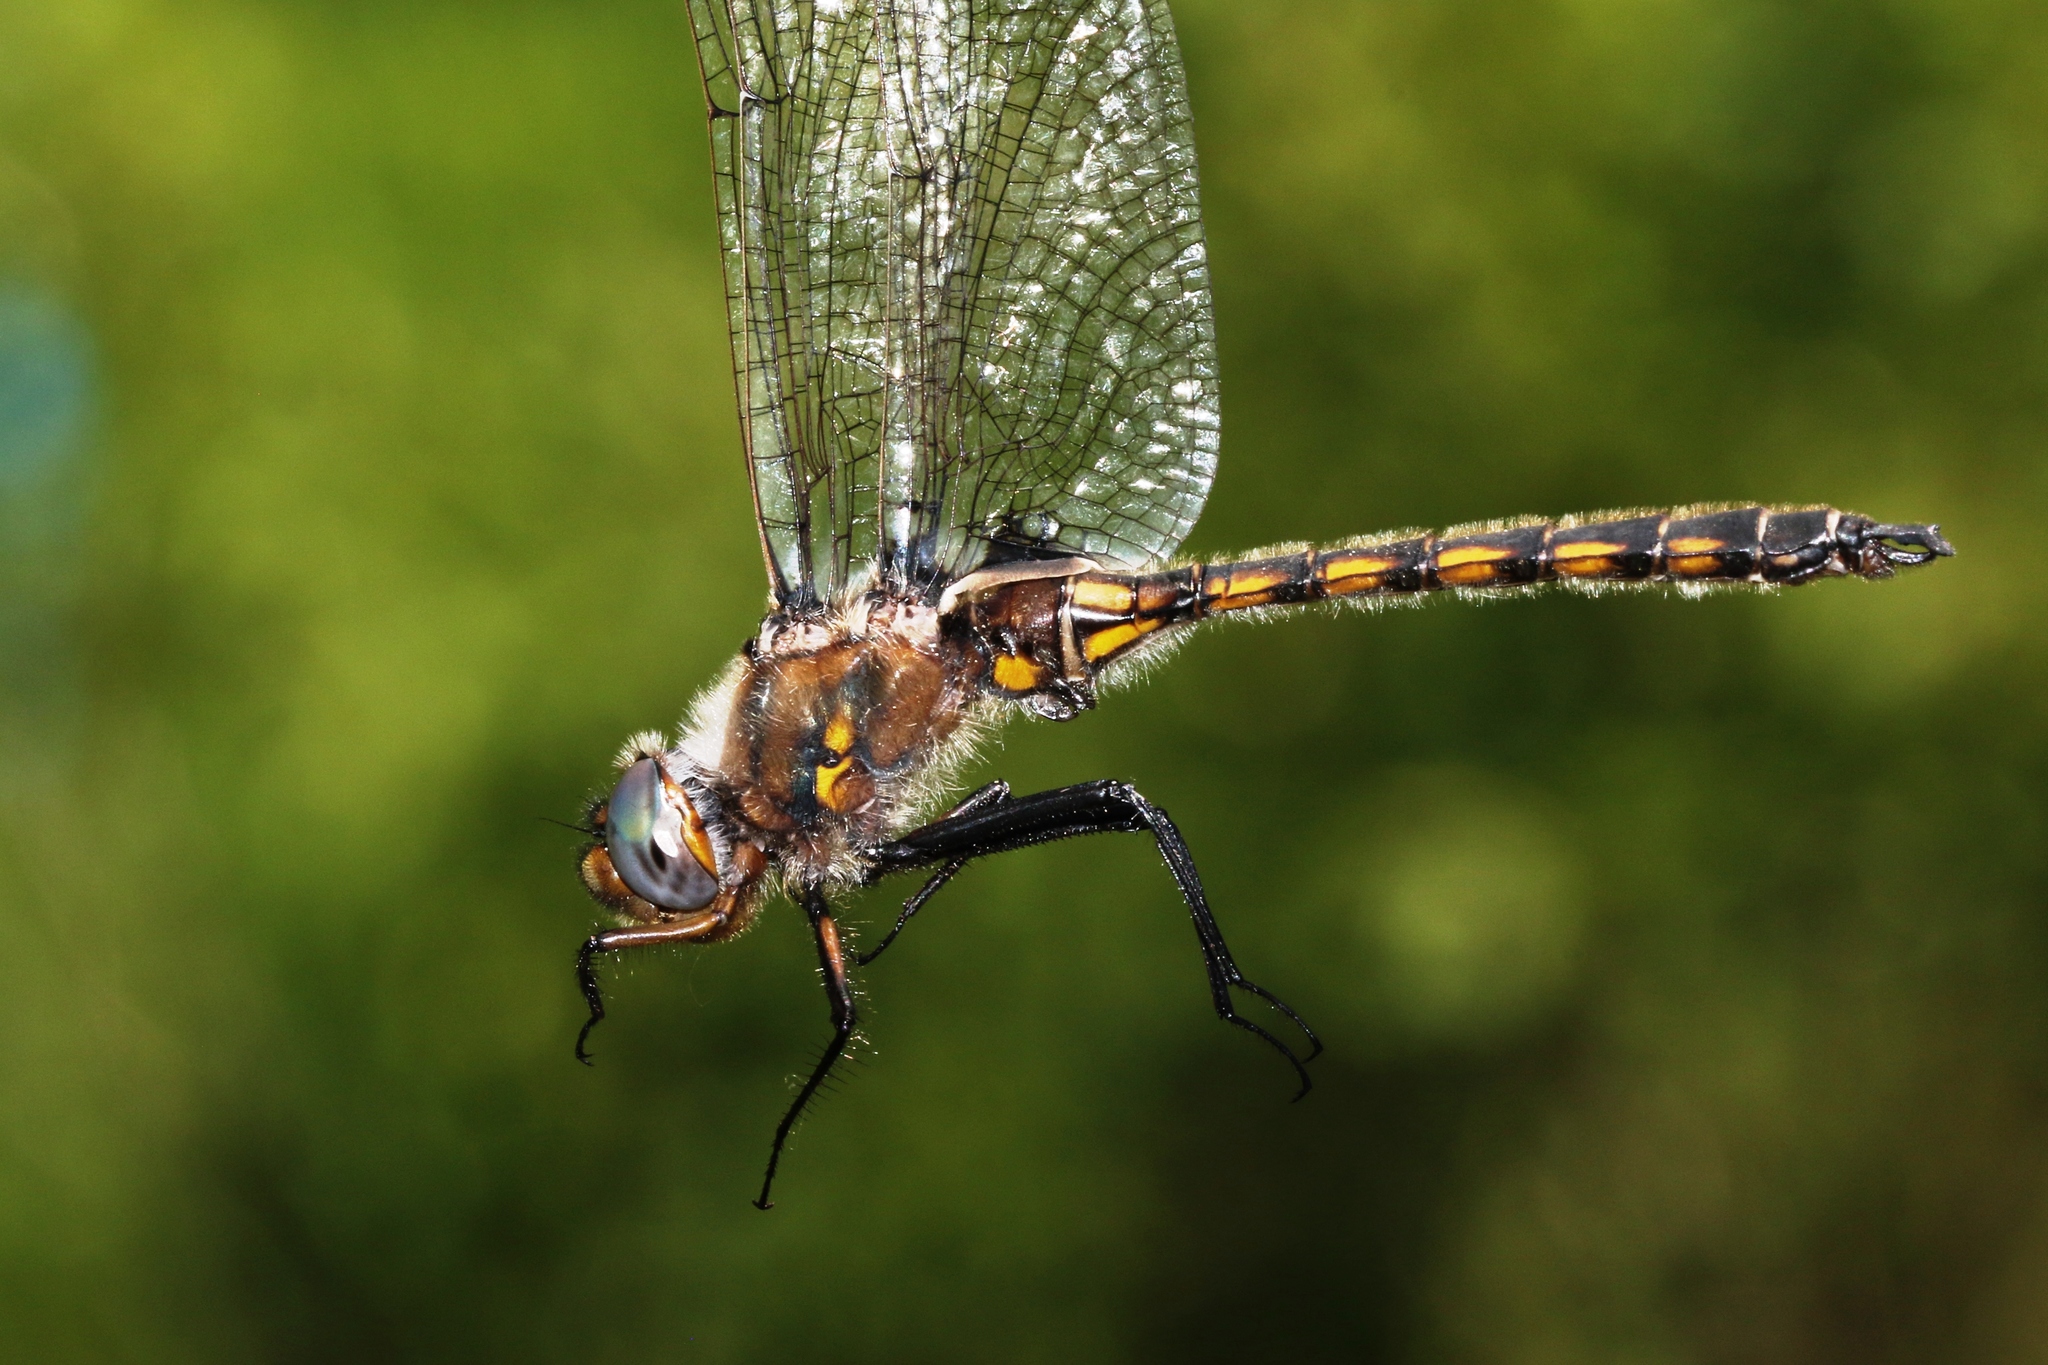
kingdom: Animalia
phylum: Arthropoda
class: Insecta
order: Odonata
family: Corduliidae
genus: Epitheca
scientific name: Epitheca canis
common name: Beaverpond baskettail
